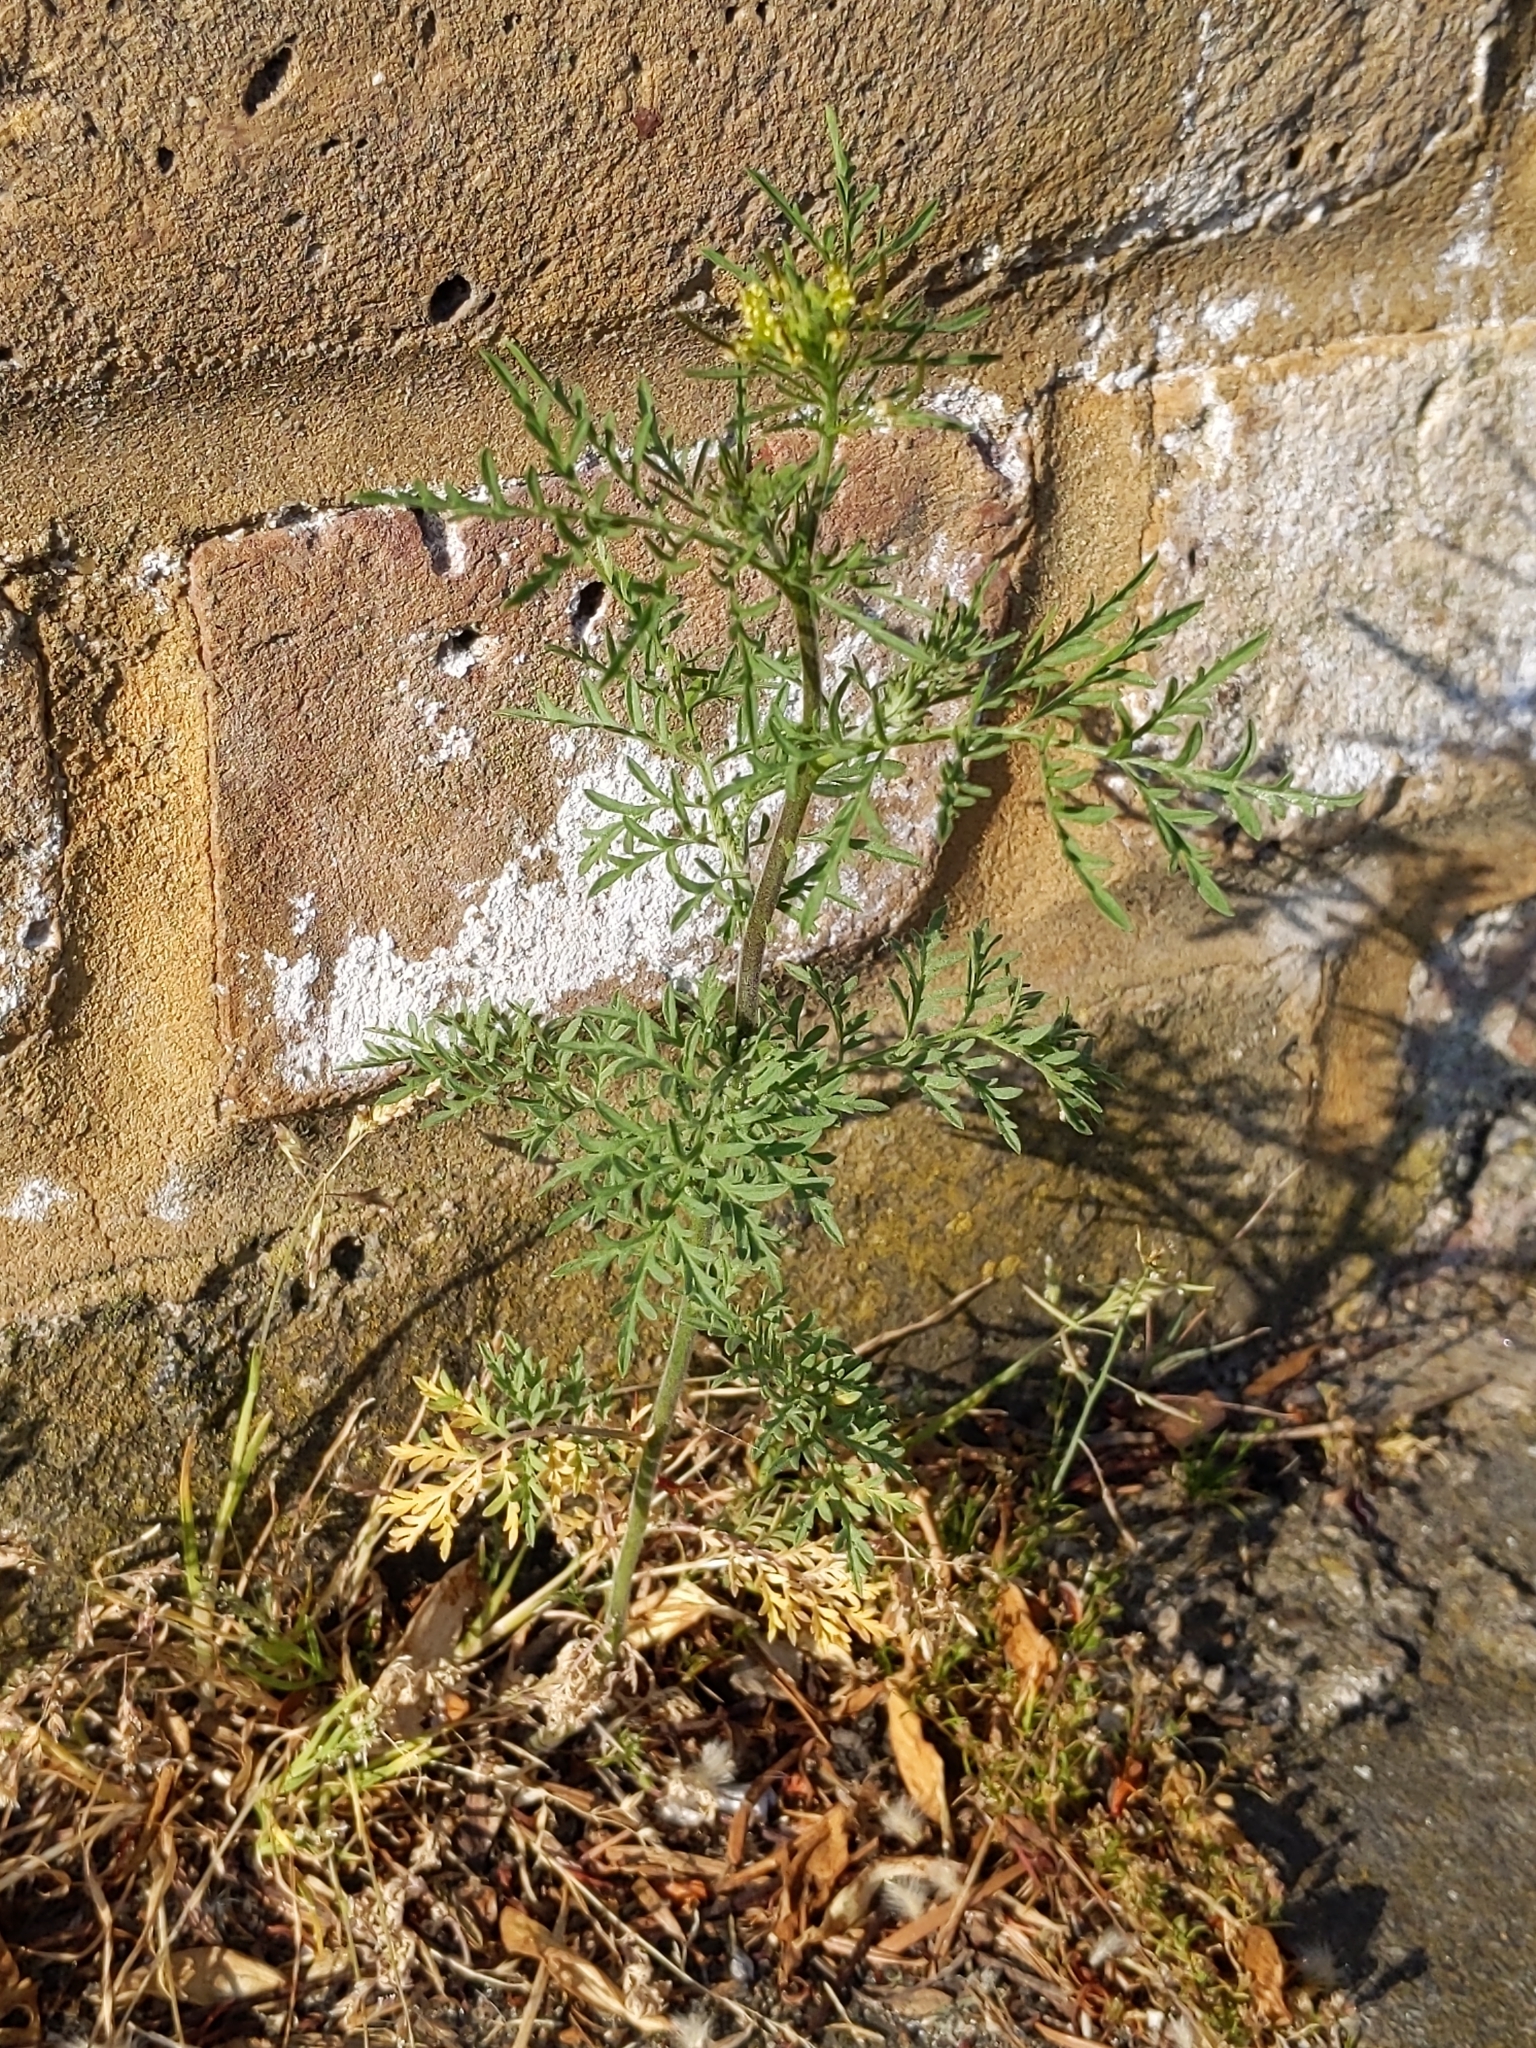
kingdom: Plantae
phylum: Tracheophyta
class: Magnoliopsida
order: Brassicales
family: Brassicaceae
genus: Descurainia
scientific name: Descurainia sophia
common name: Flixweed
